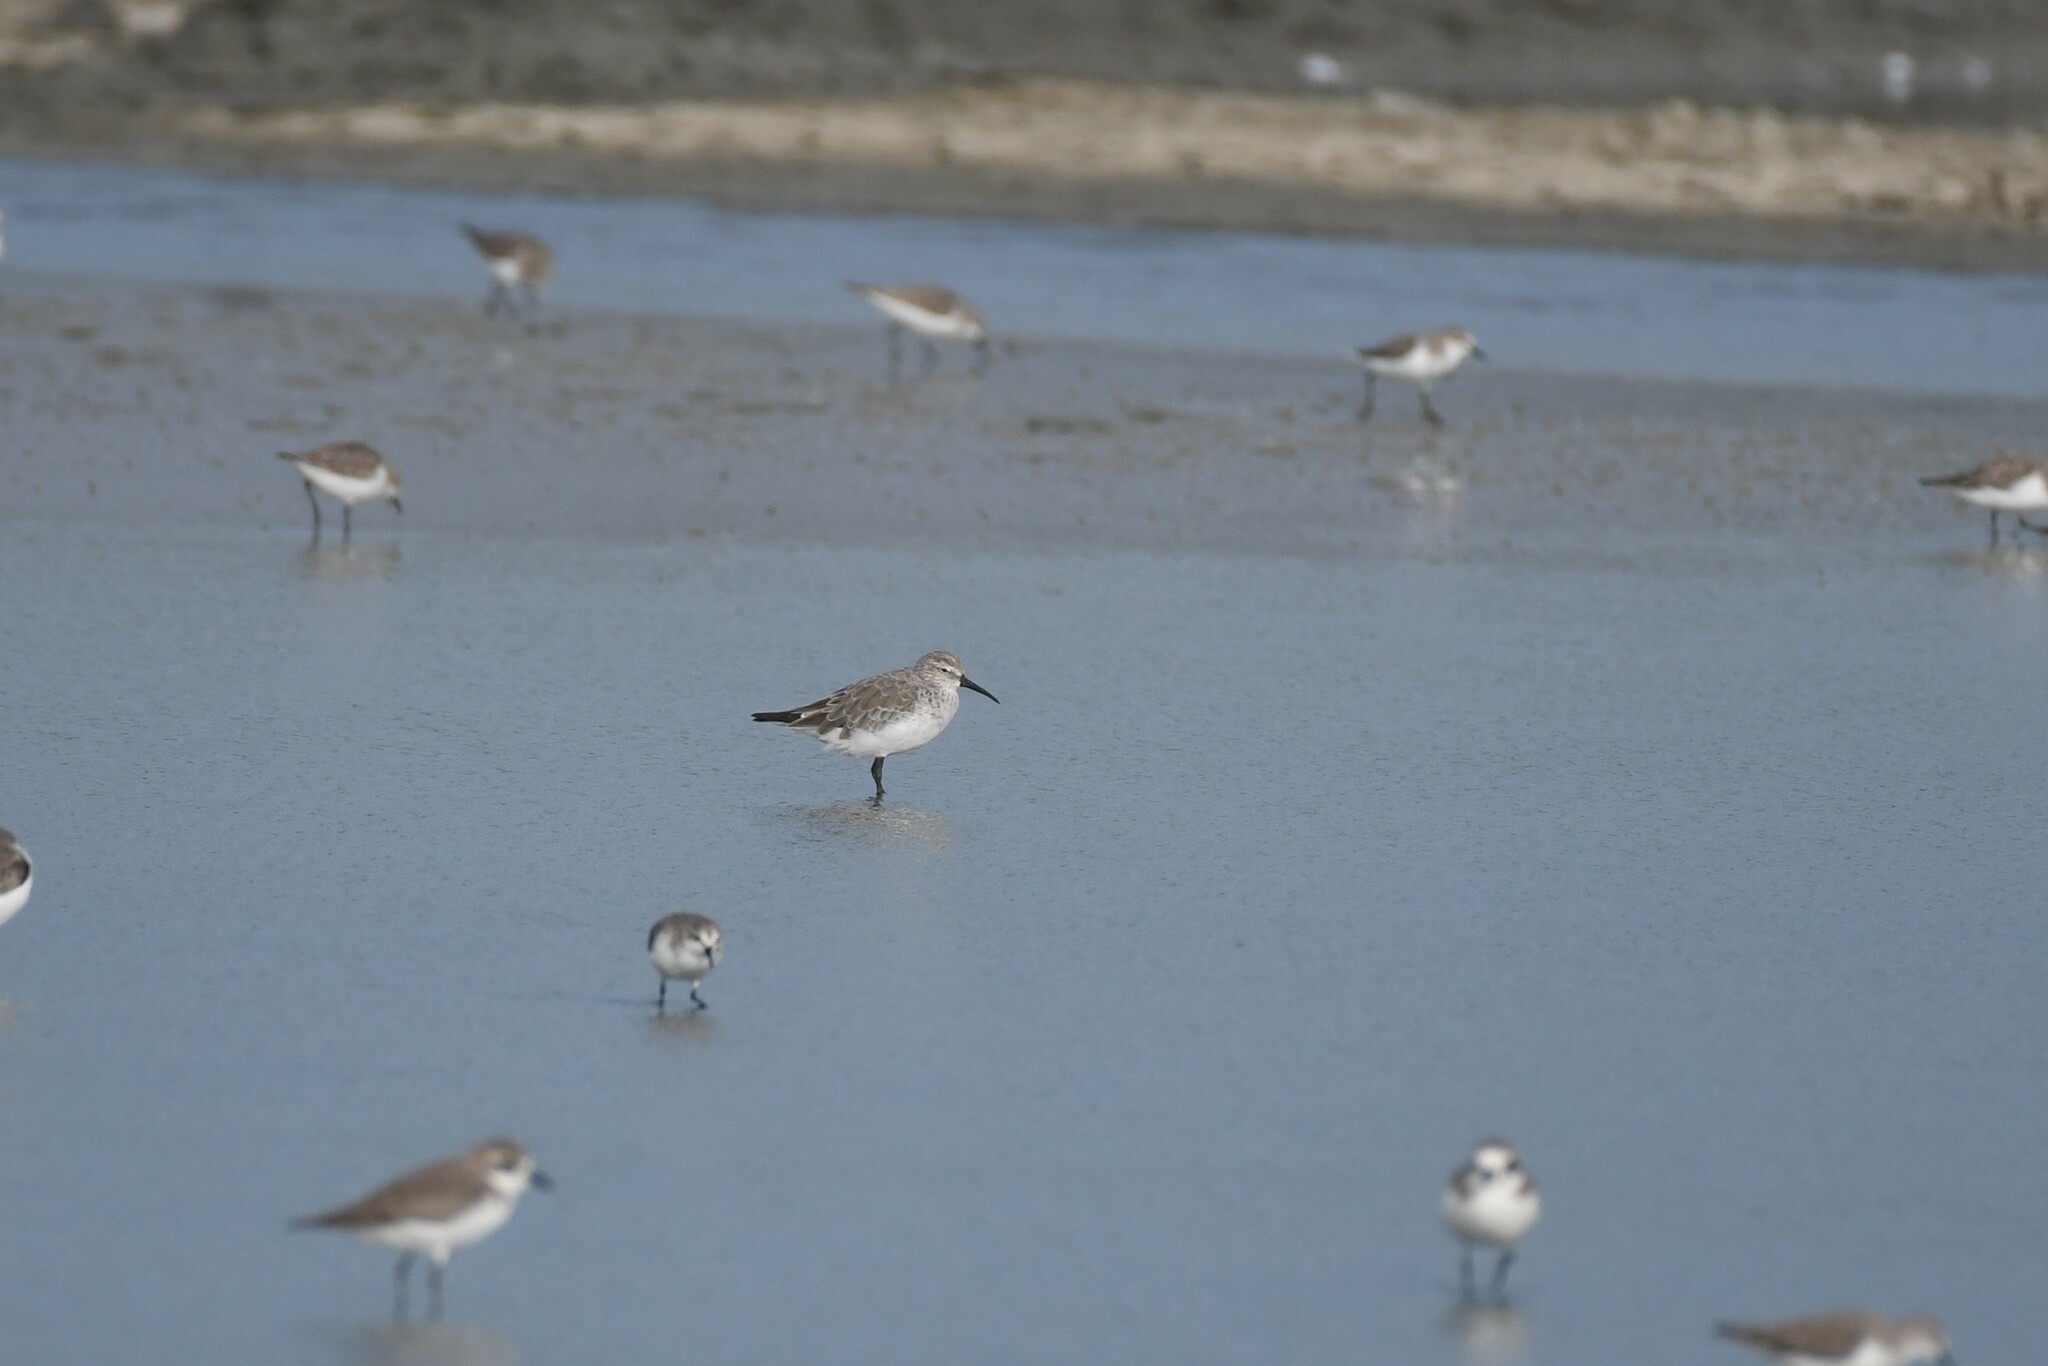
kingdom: Animalia
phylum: Chordata
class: Aves
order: Charadriiformes
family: Scolopacidae
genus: Calidris
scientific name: Calidris ferruginea
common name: Curlew sandpiper
